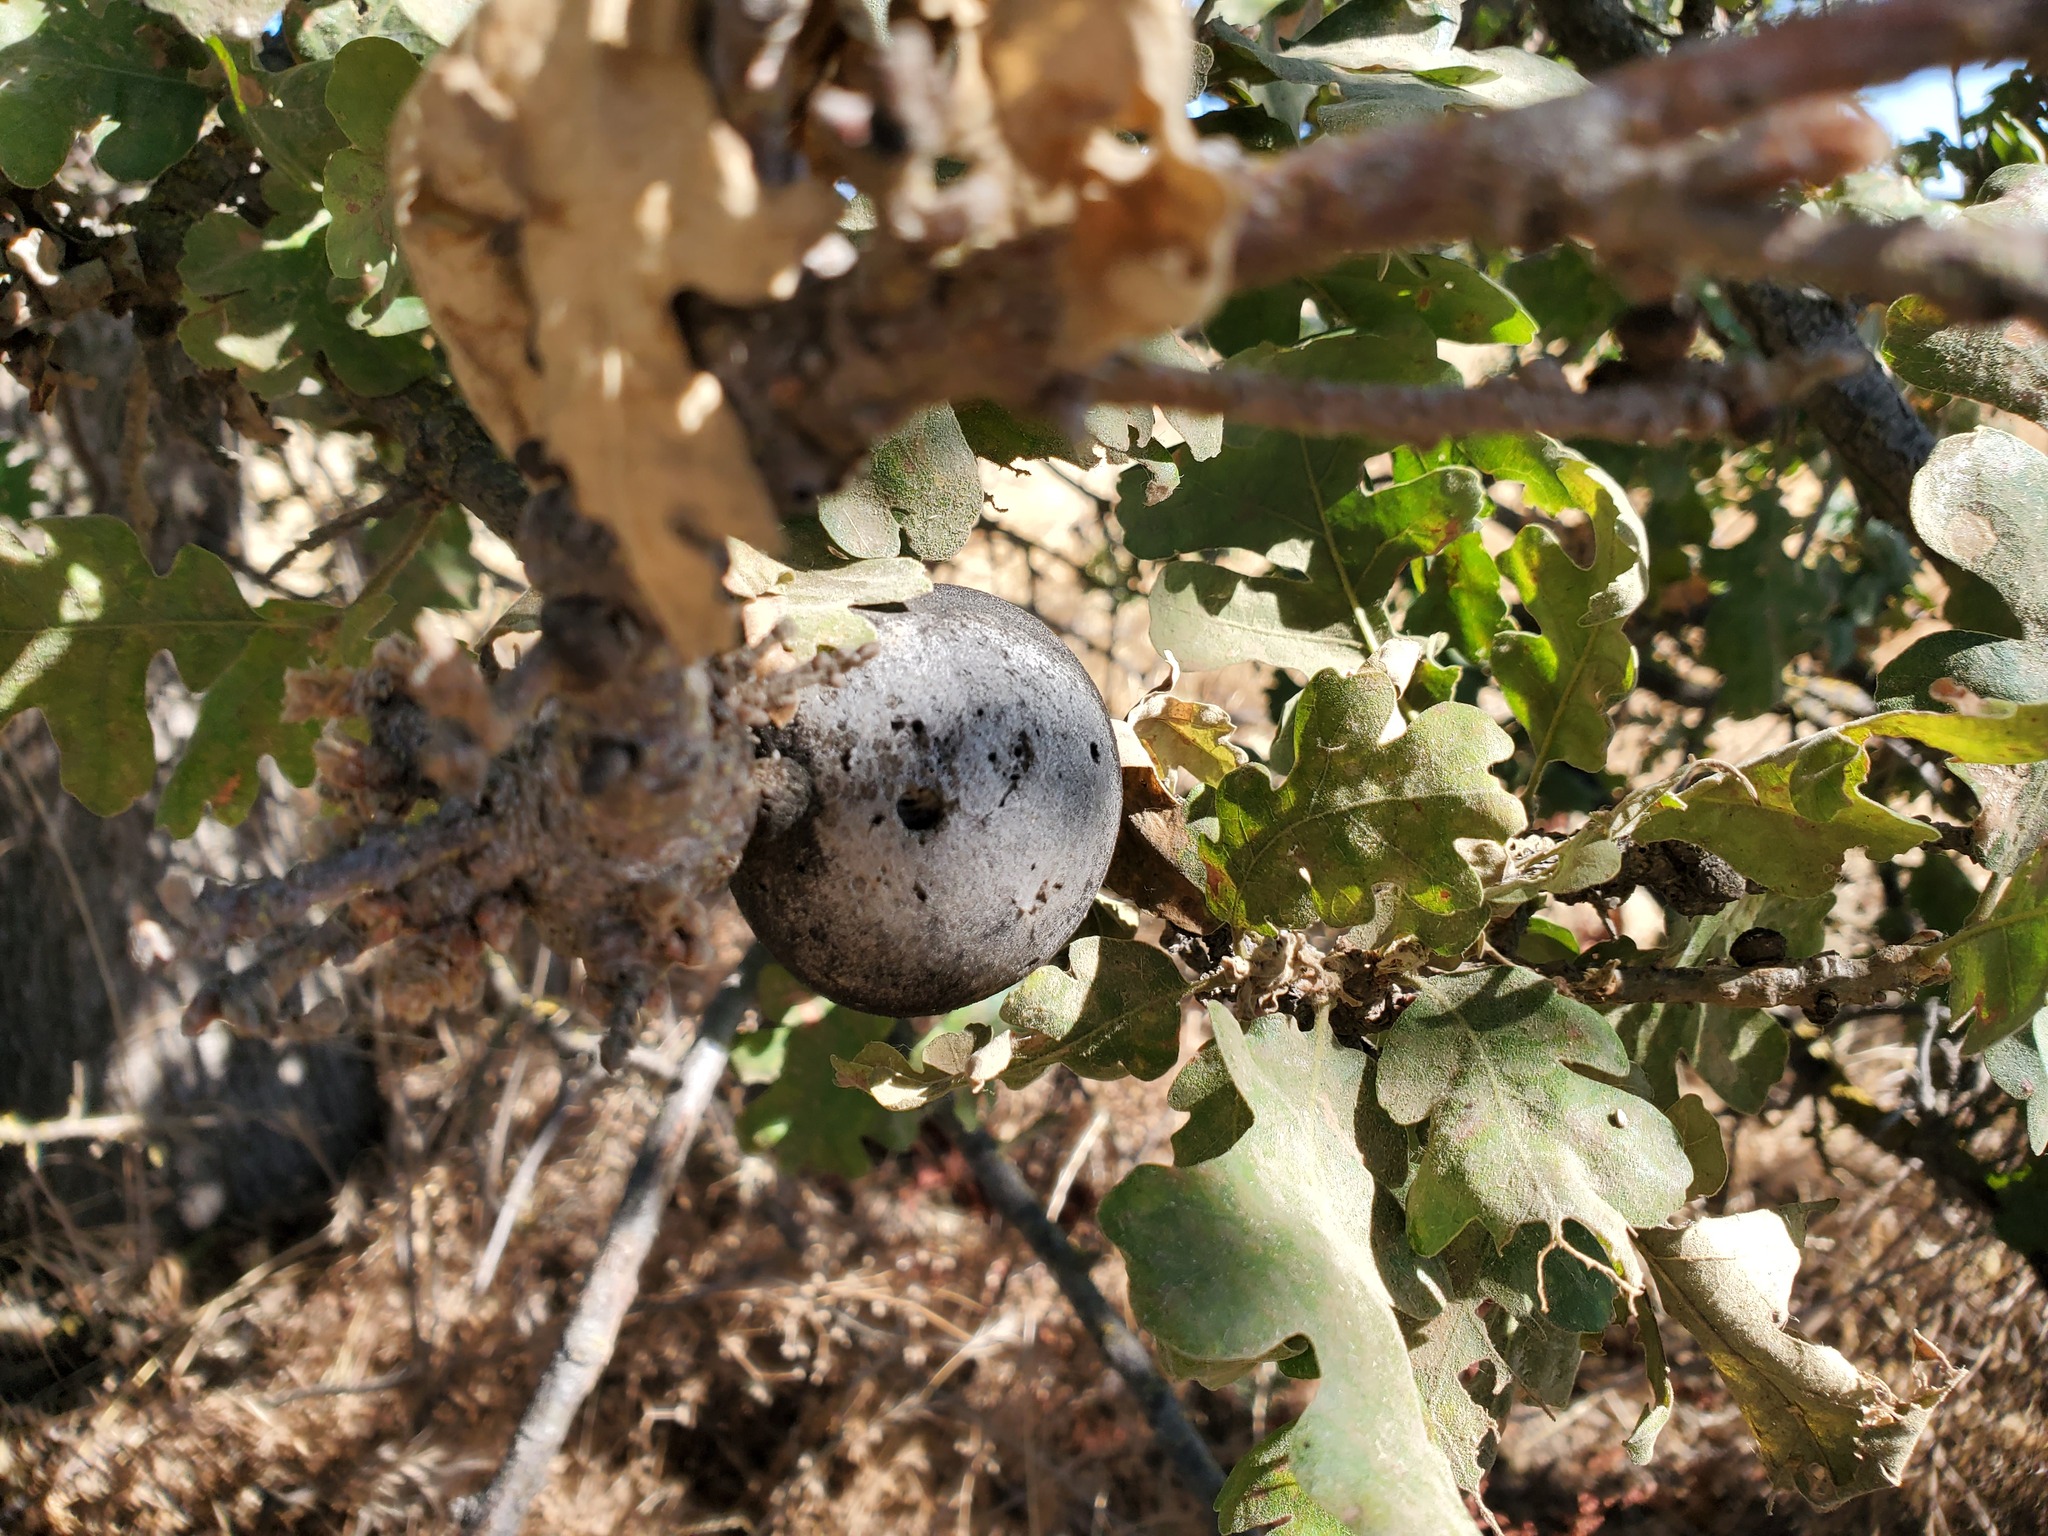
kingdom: Animalia
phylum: Arthropoda
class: Insecta
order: Hymenoptera
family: Cynipidae
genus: Andricus
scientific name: Andricus quercuscalifornicus
